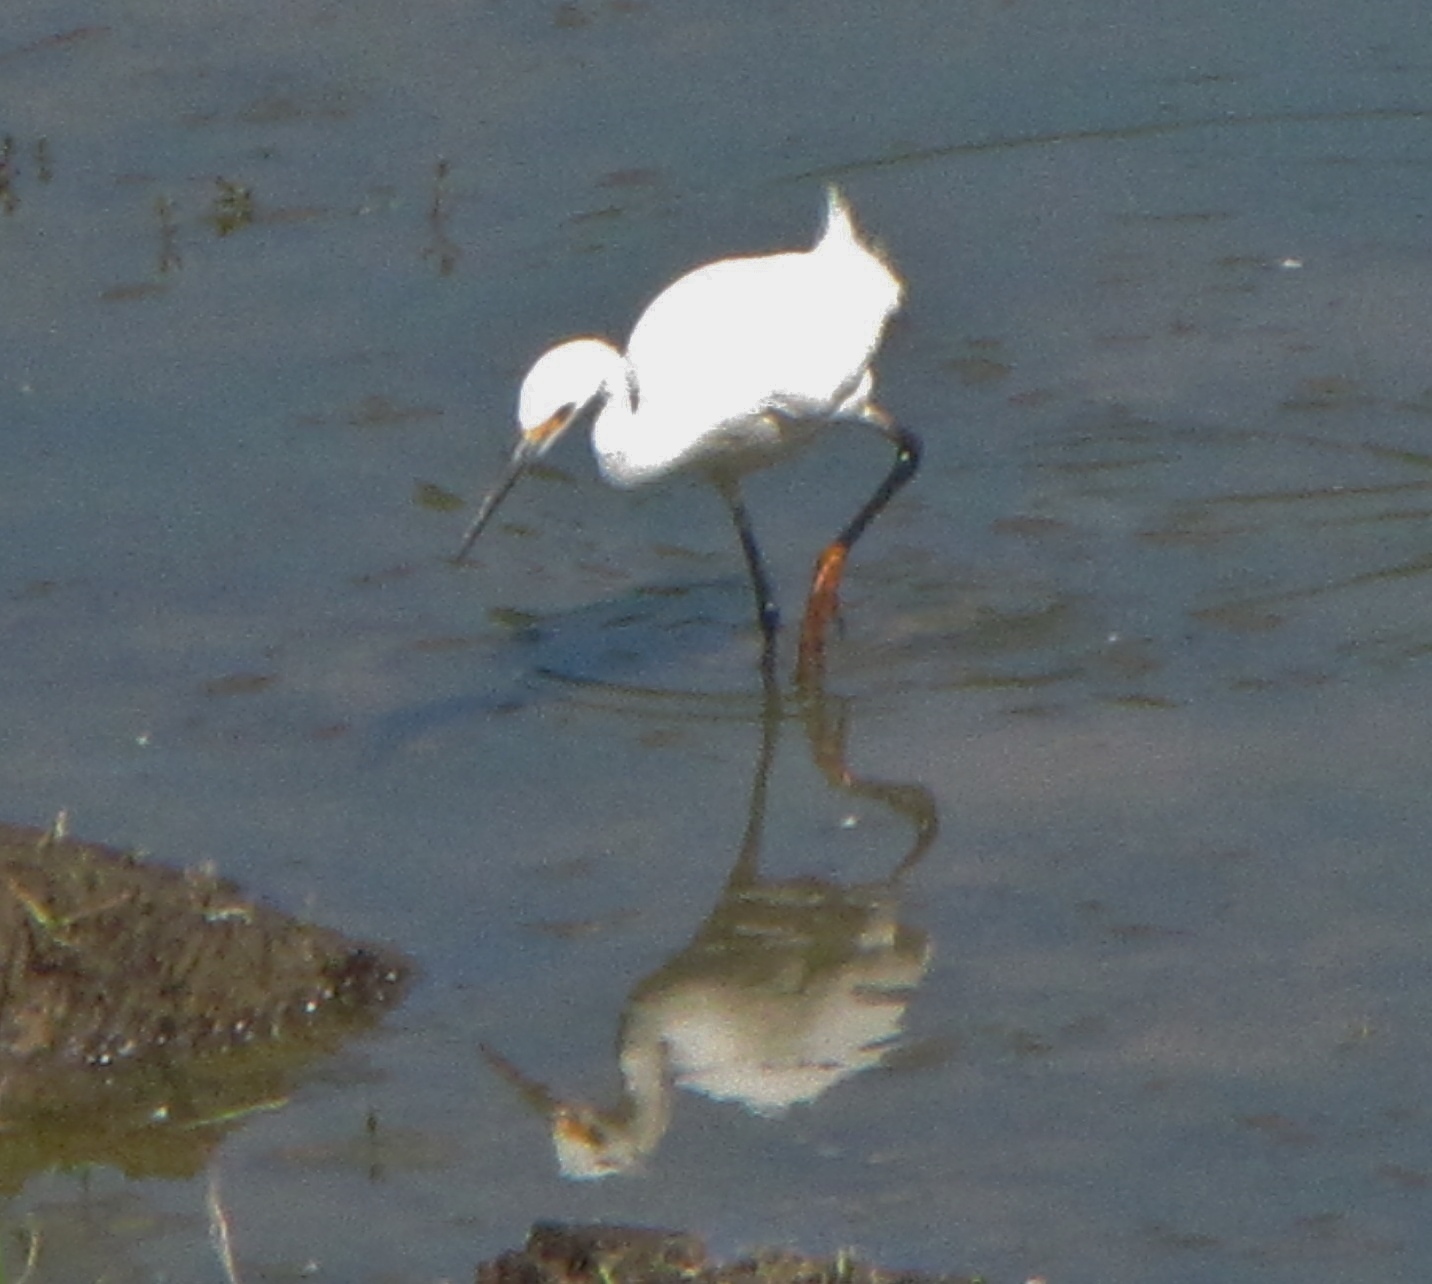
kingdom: Animalia
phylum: Chordata
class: Aves
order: Pelecaniformes
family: Ardeidae
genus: Egretta
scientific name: Egretta thula
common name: Snowy egret
